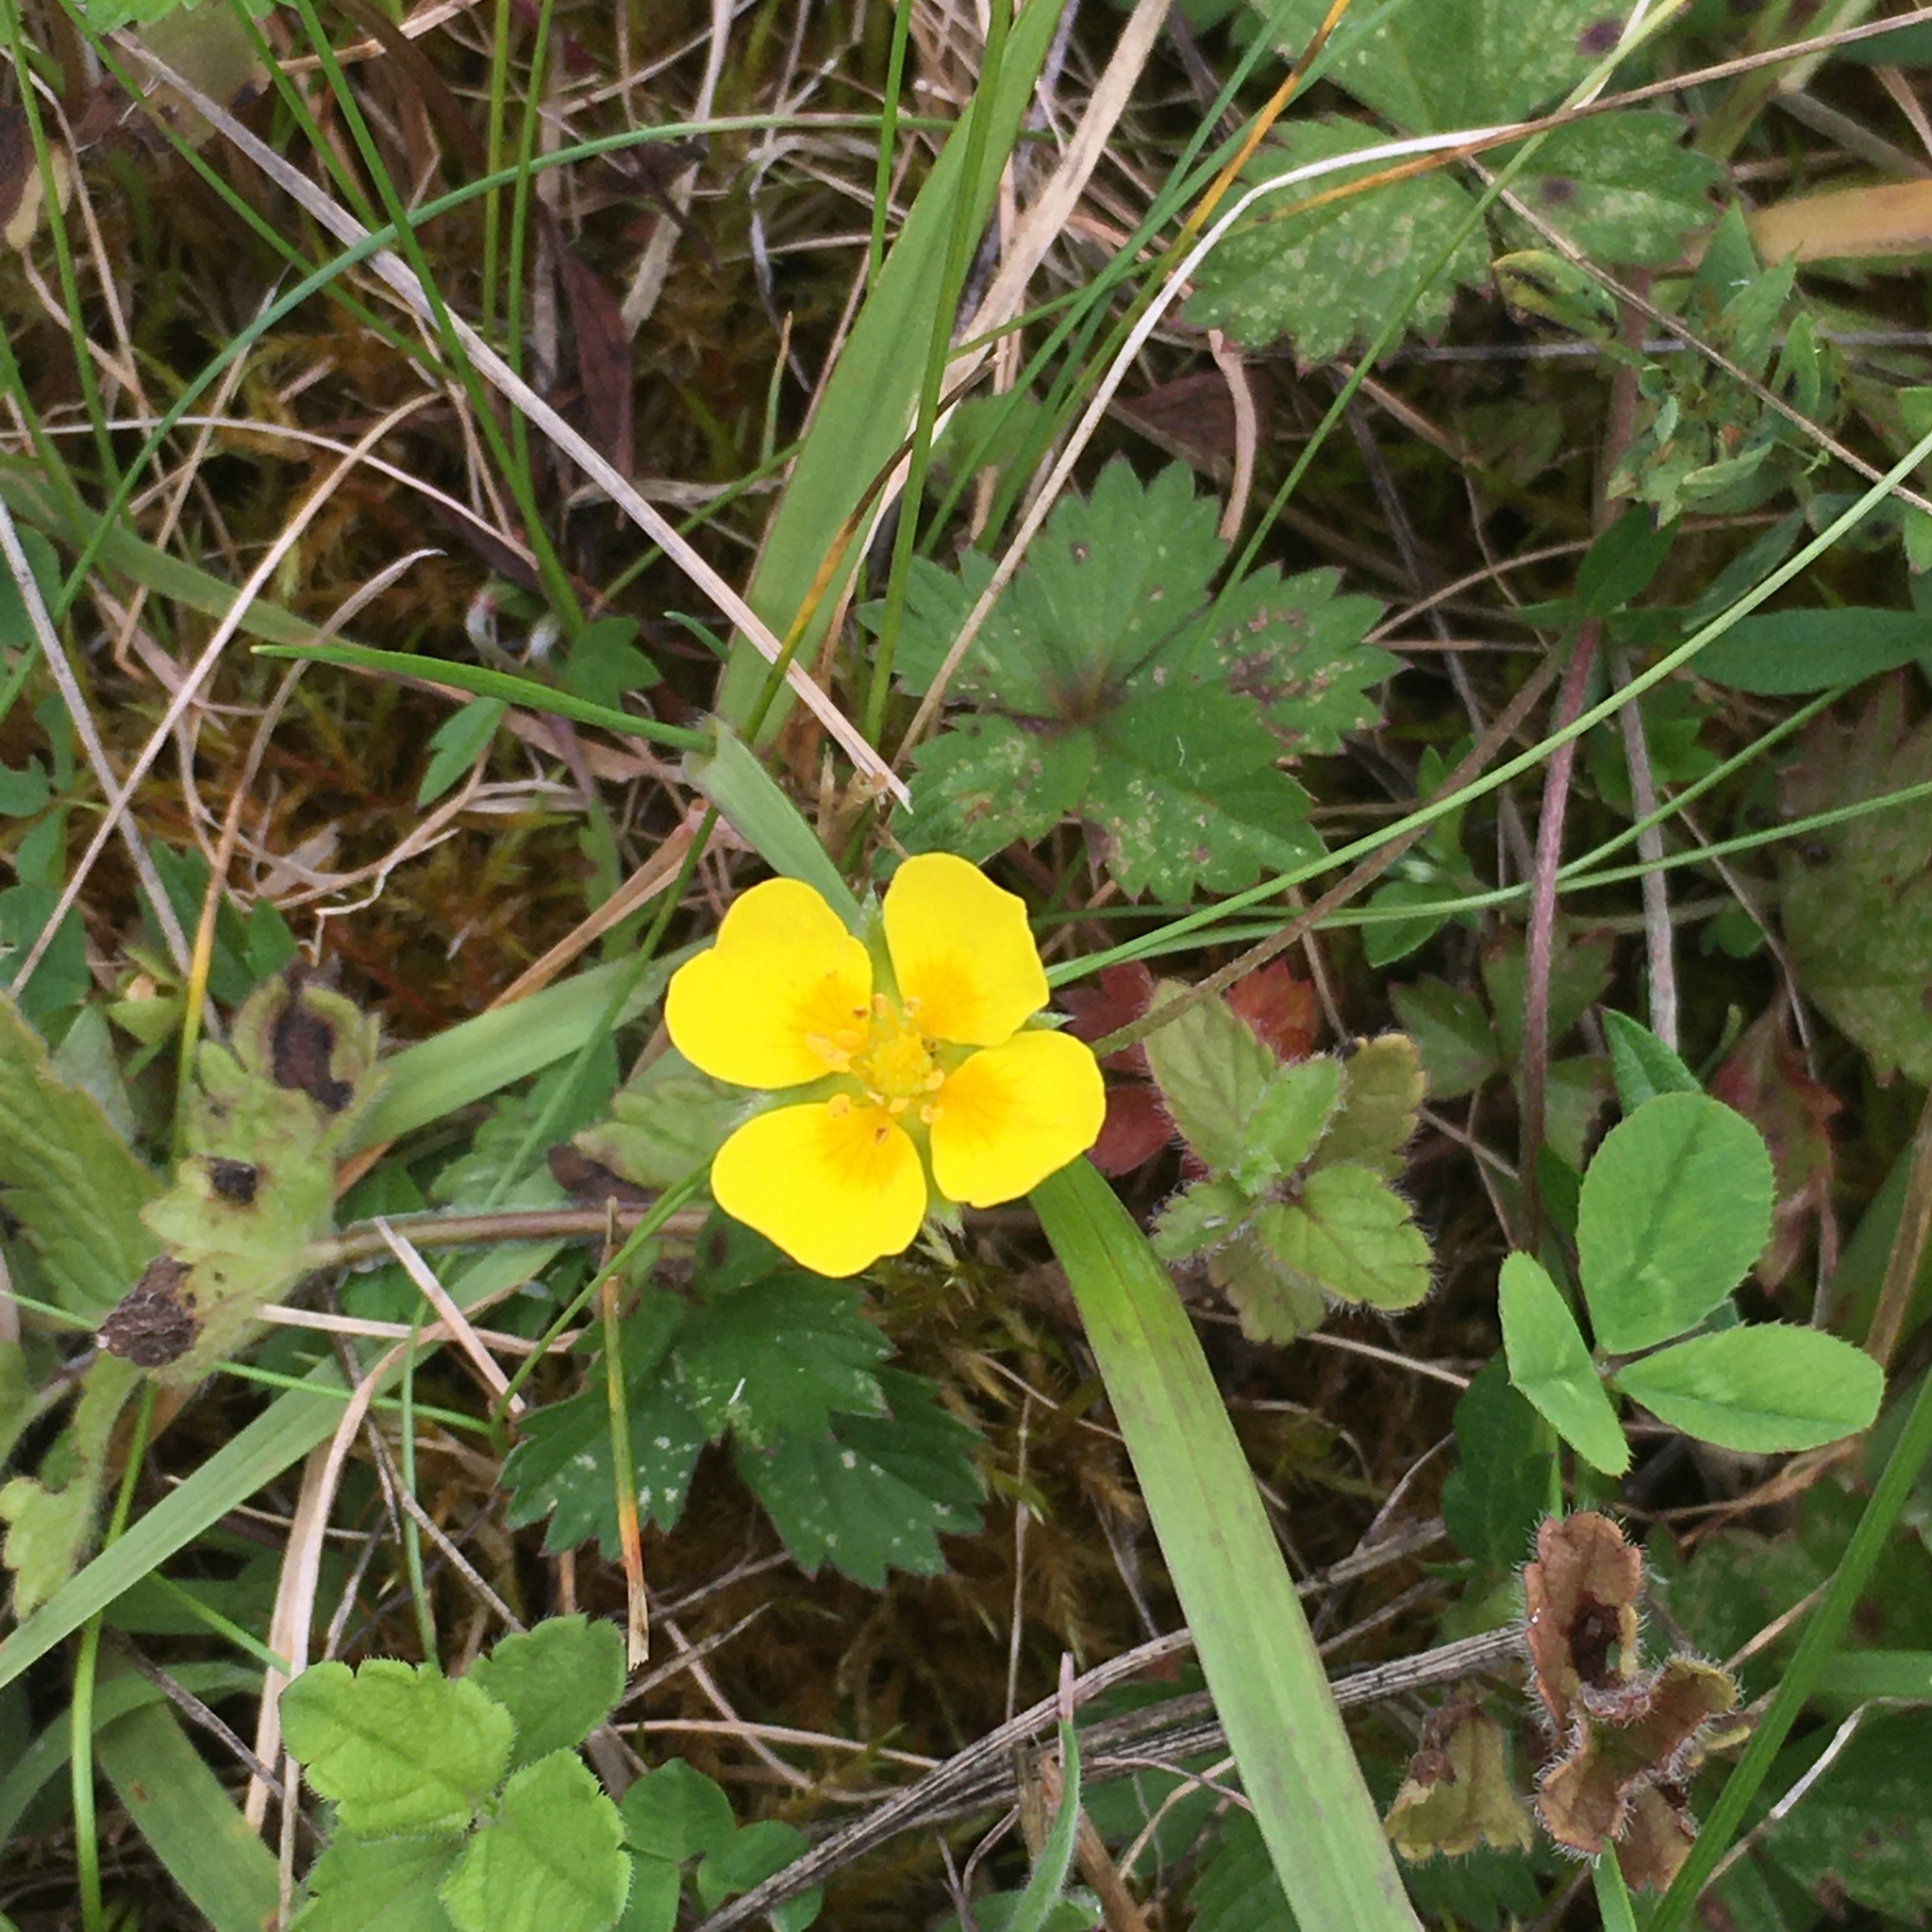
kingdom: Plantae
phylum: Tracheophyta
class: Magnoliopsida
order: Rosales
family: Rosaceae
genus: Potentilla
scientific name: Potentilla erecta
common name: Tormentil
